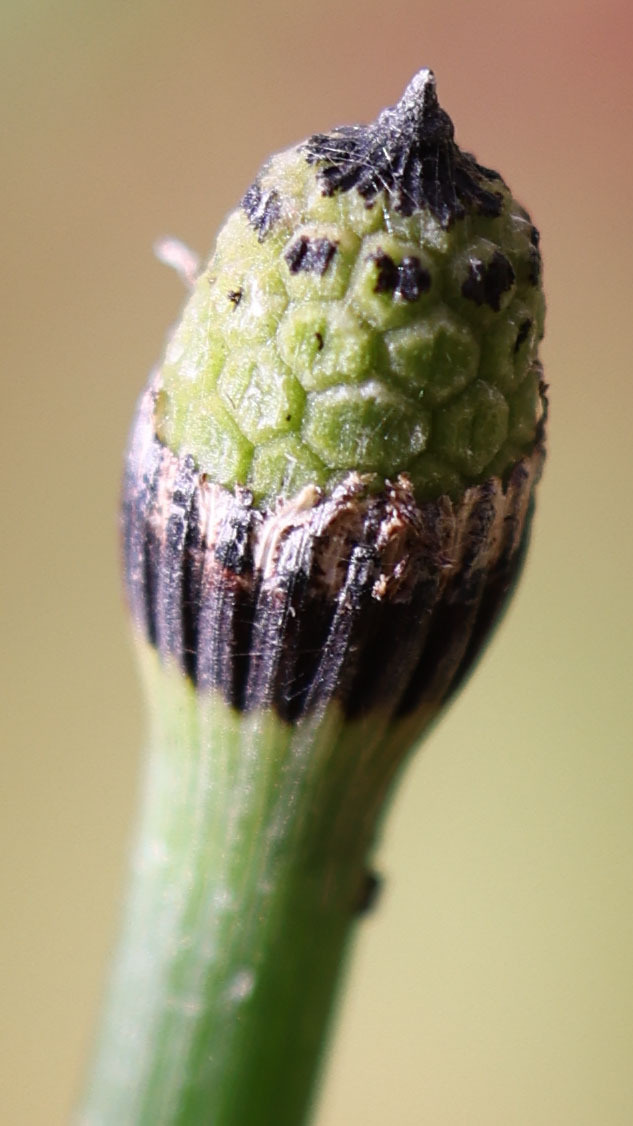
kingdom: Plantae
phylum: Tracheophyta
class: Polypodiopsida
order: Equisetales
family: Equisetaceae
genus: Equisetum
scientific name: Equisetum hyemale
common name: Rough horsetail
